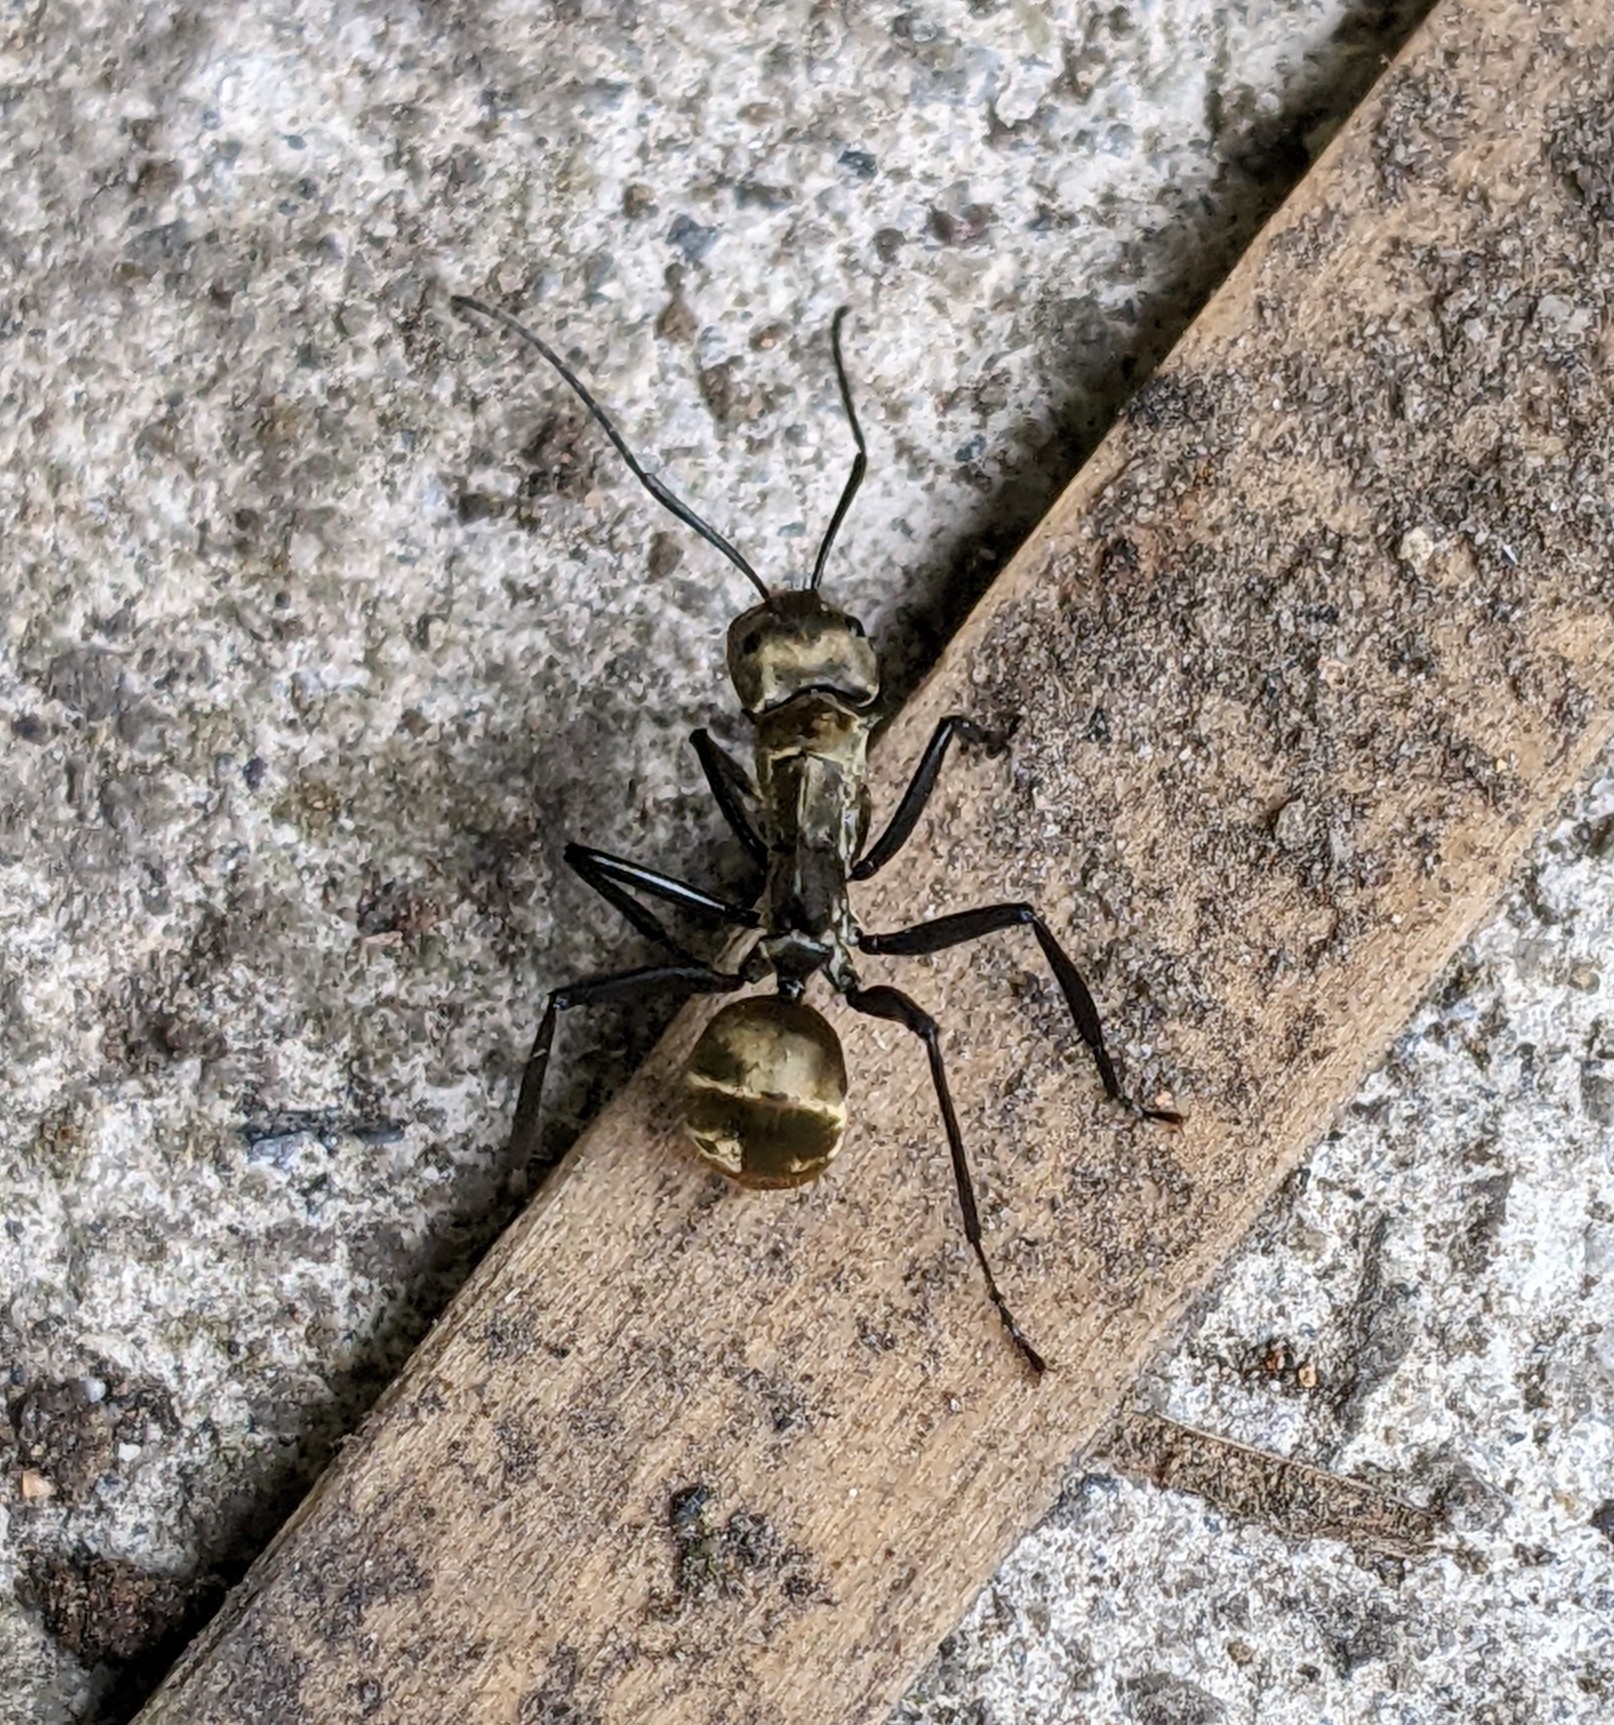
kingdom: Animalia
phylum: Arthropoda
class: Insecta
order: Hymenoptera
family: Formicidae
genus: Camponotus
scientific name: Camponotus sericeiventris
